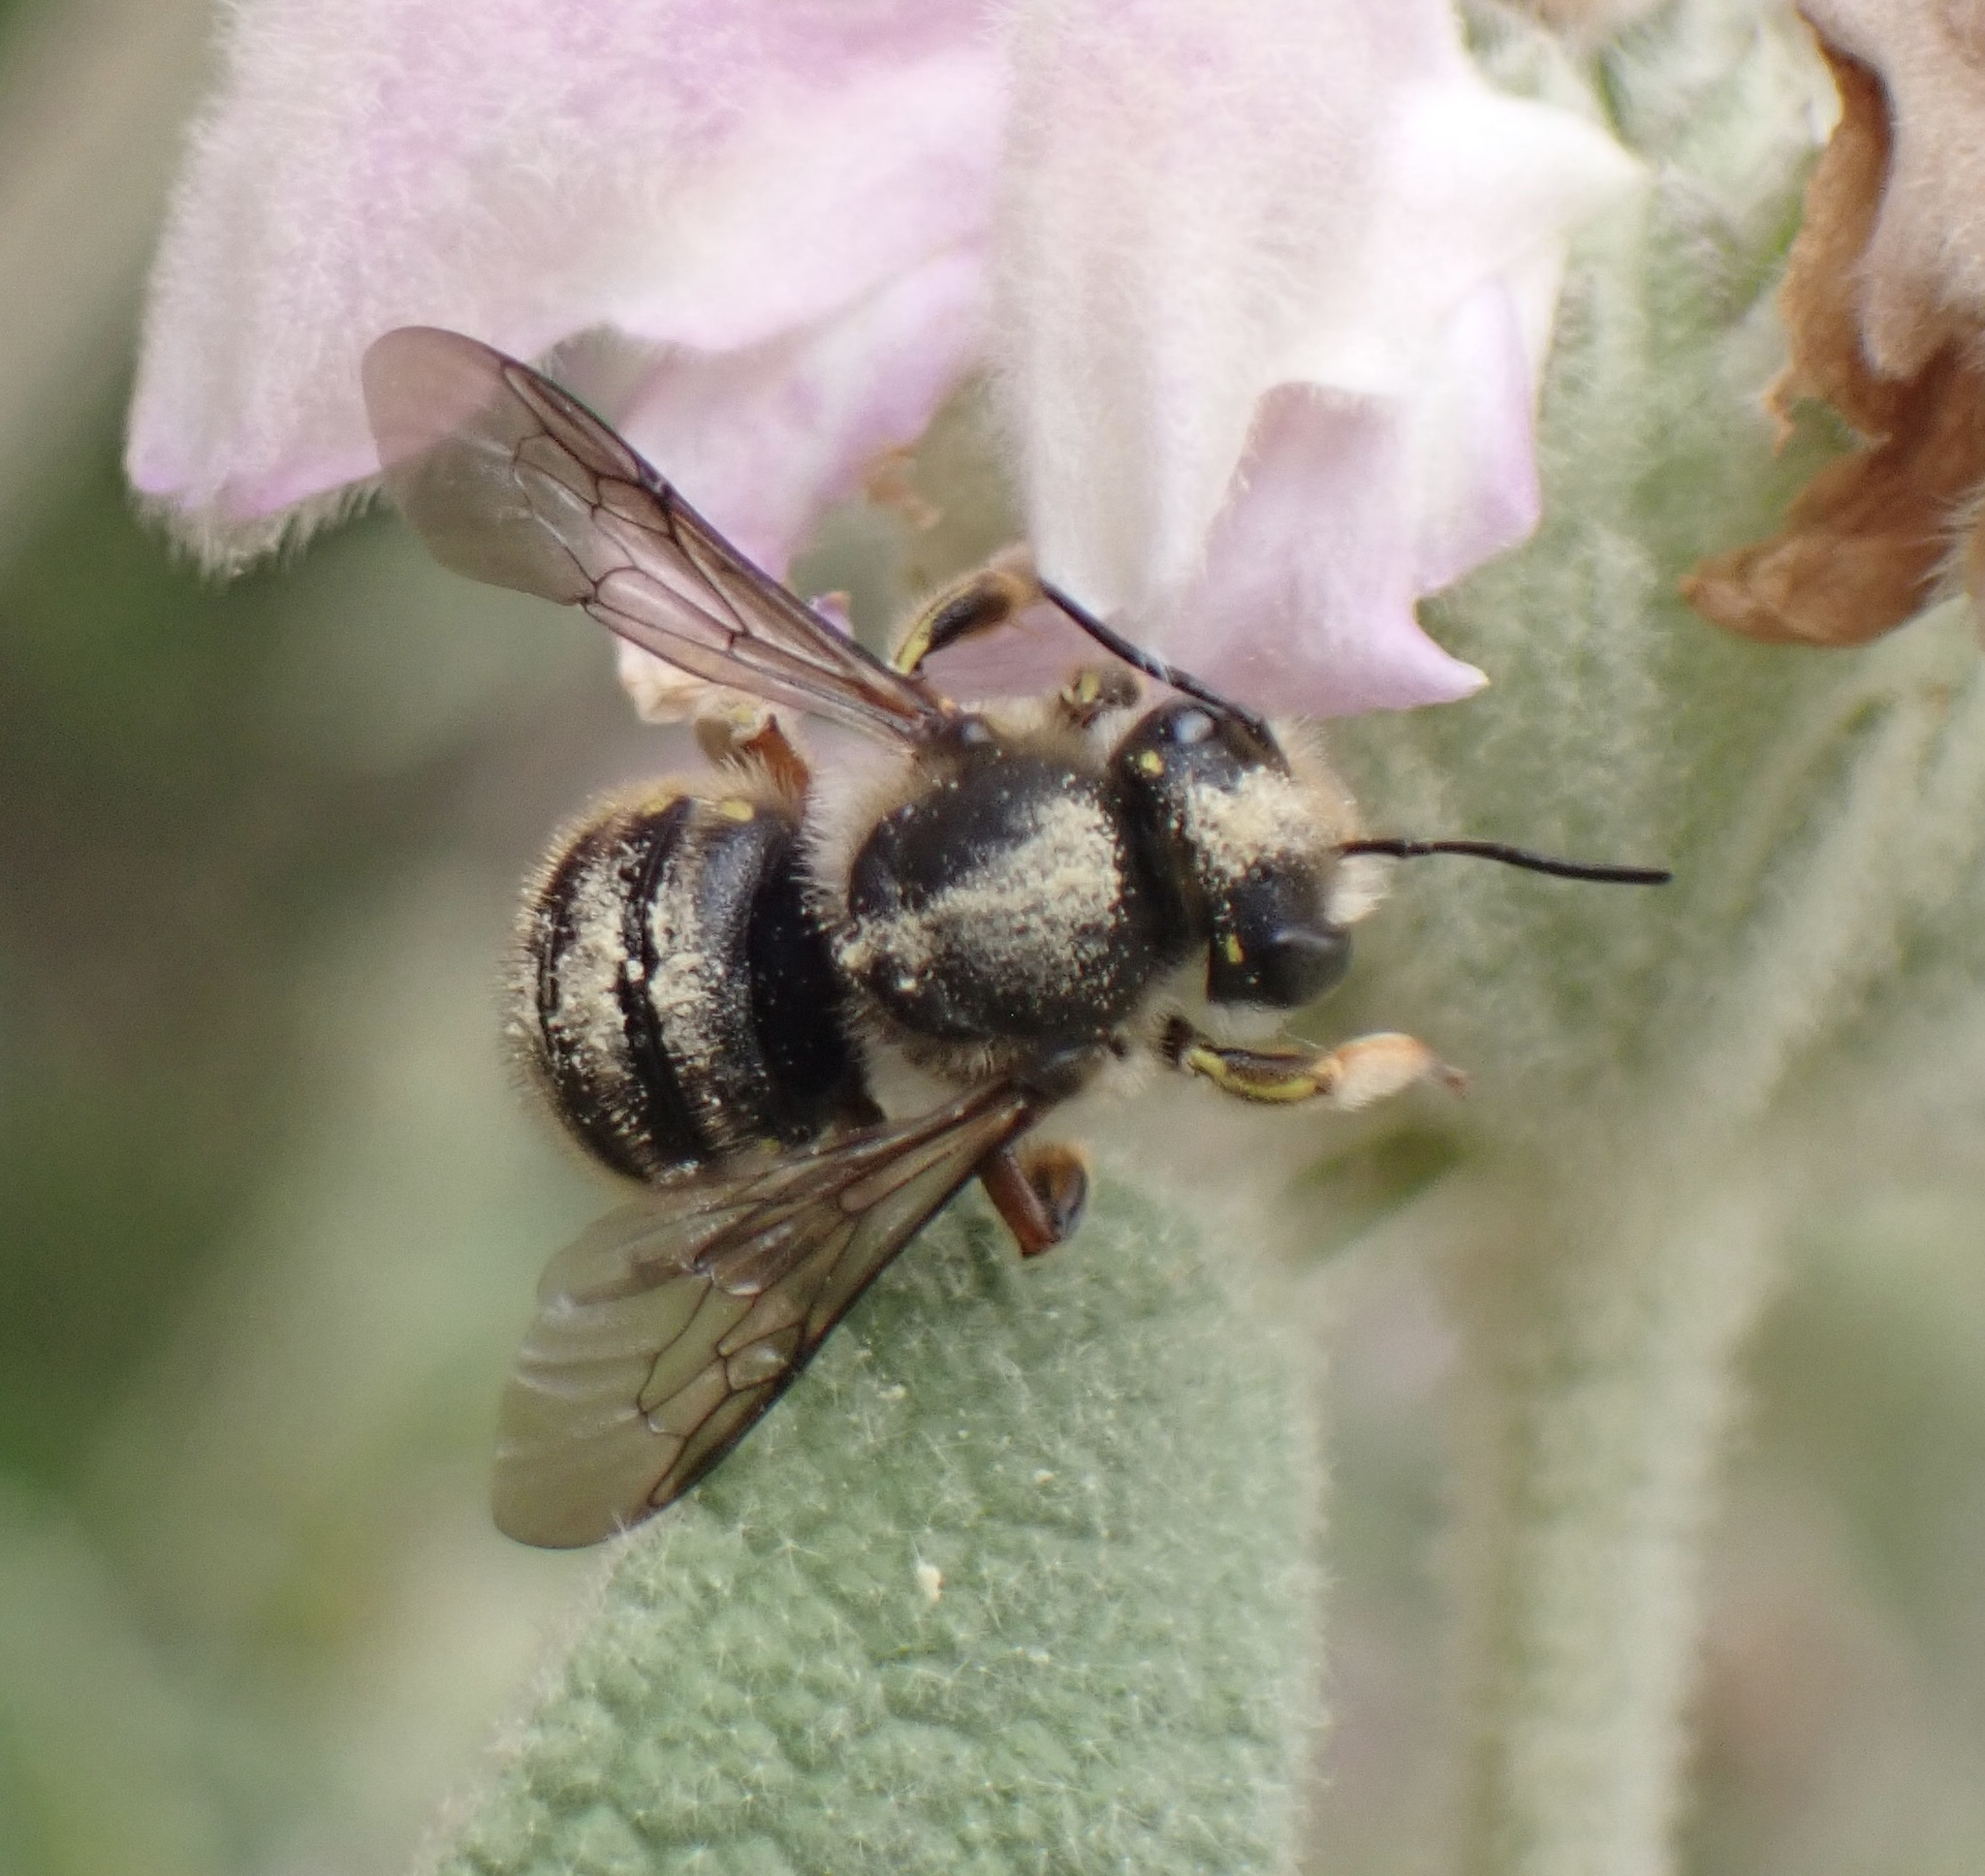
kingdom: Animalia
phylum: Arthropoda
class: Insecta
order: Hymenoptera
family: Megachilidae
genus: Anthidium
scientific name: Anthidium manicatum
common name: Wool carder bee
